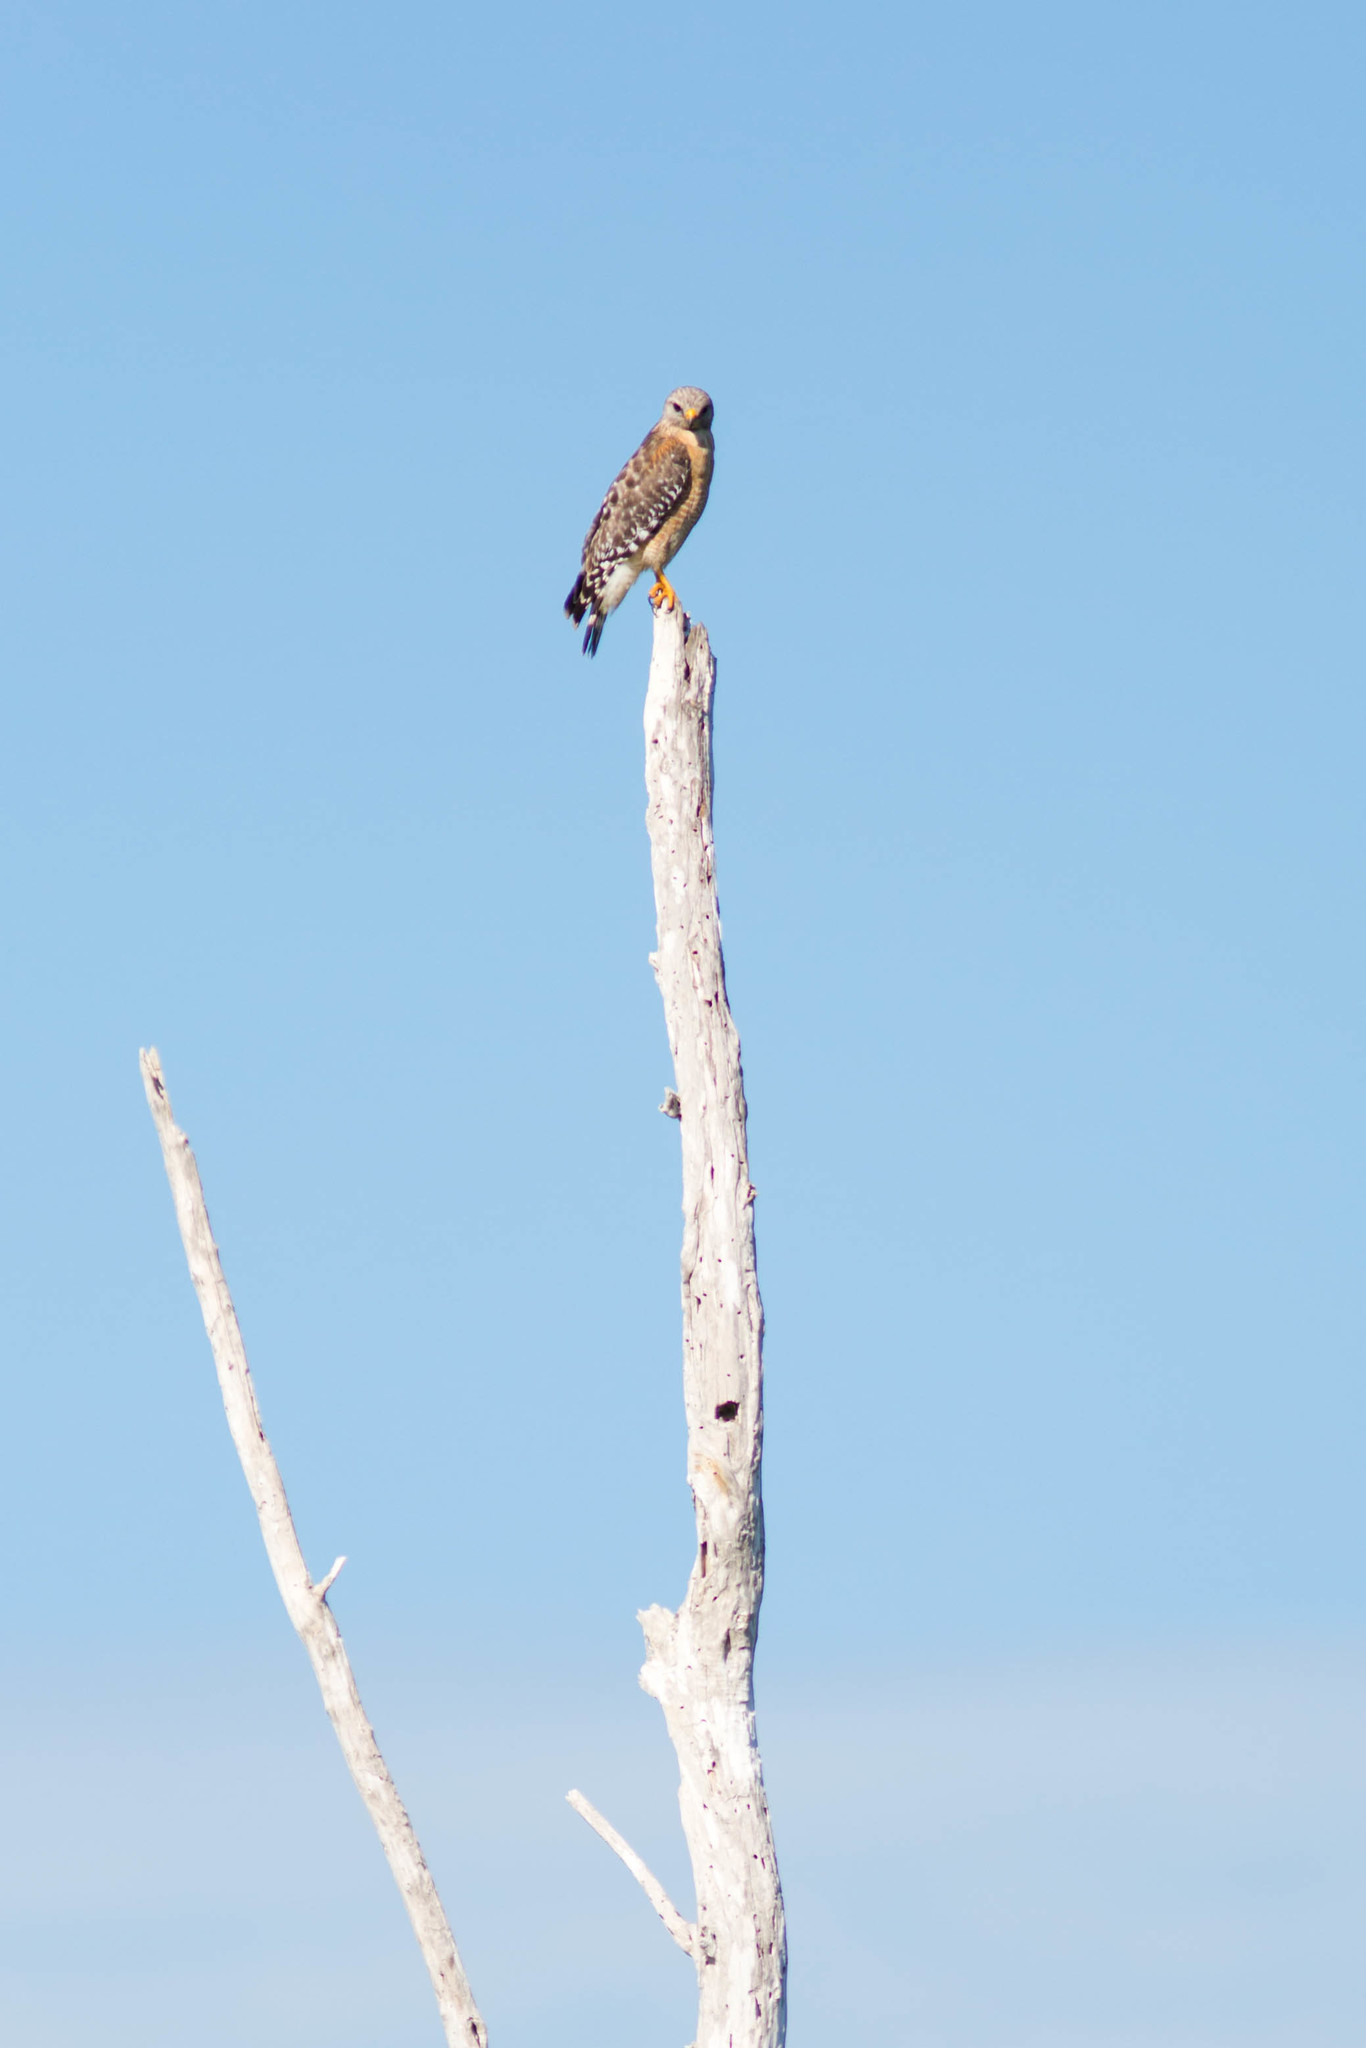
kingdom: Animalia
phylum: Chordata
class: Aves
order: Accipitriformes
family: Accipitridae
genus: Buteo
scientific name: Buteo lineatus
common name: Red-shouldered hawk
